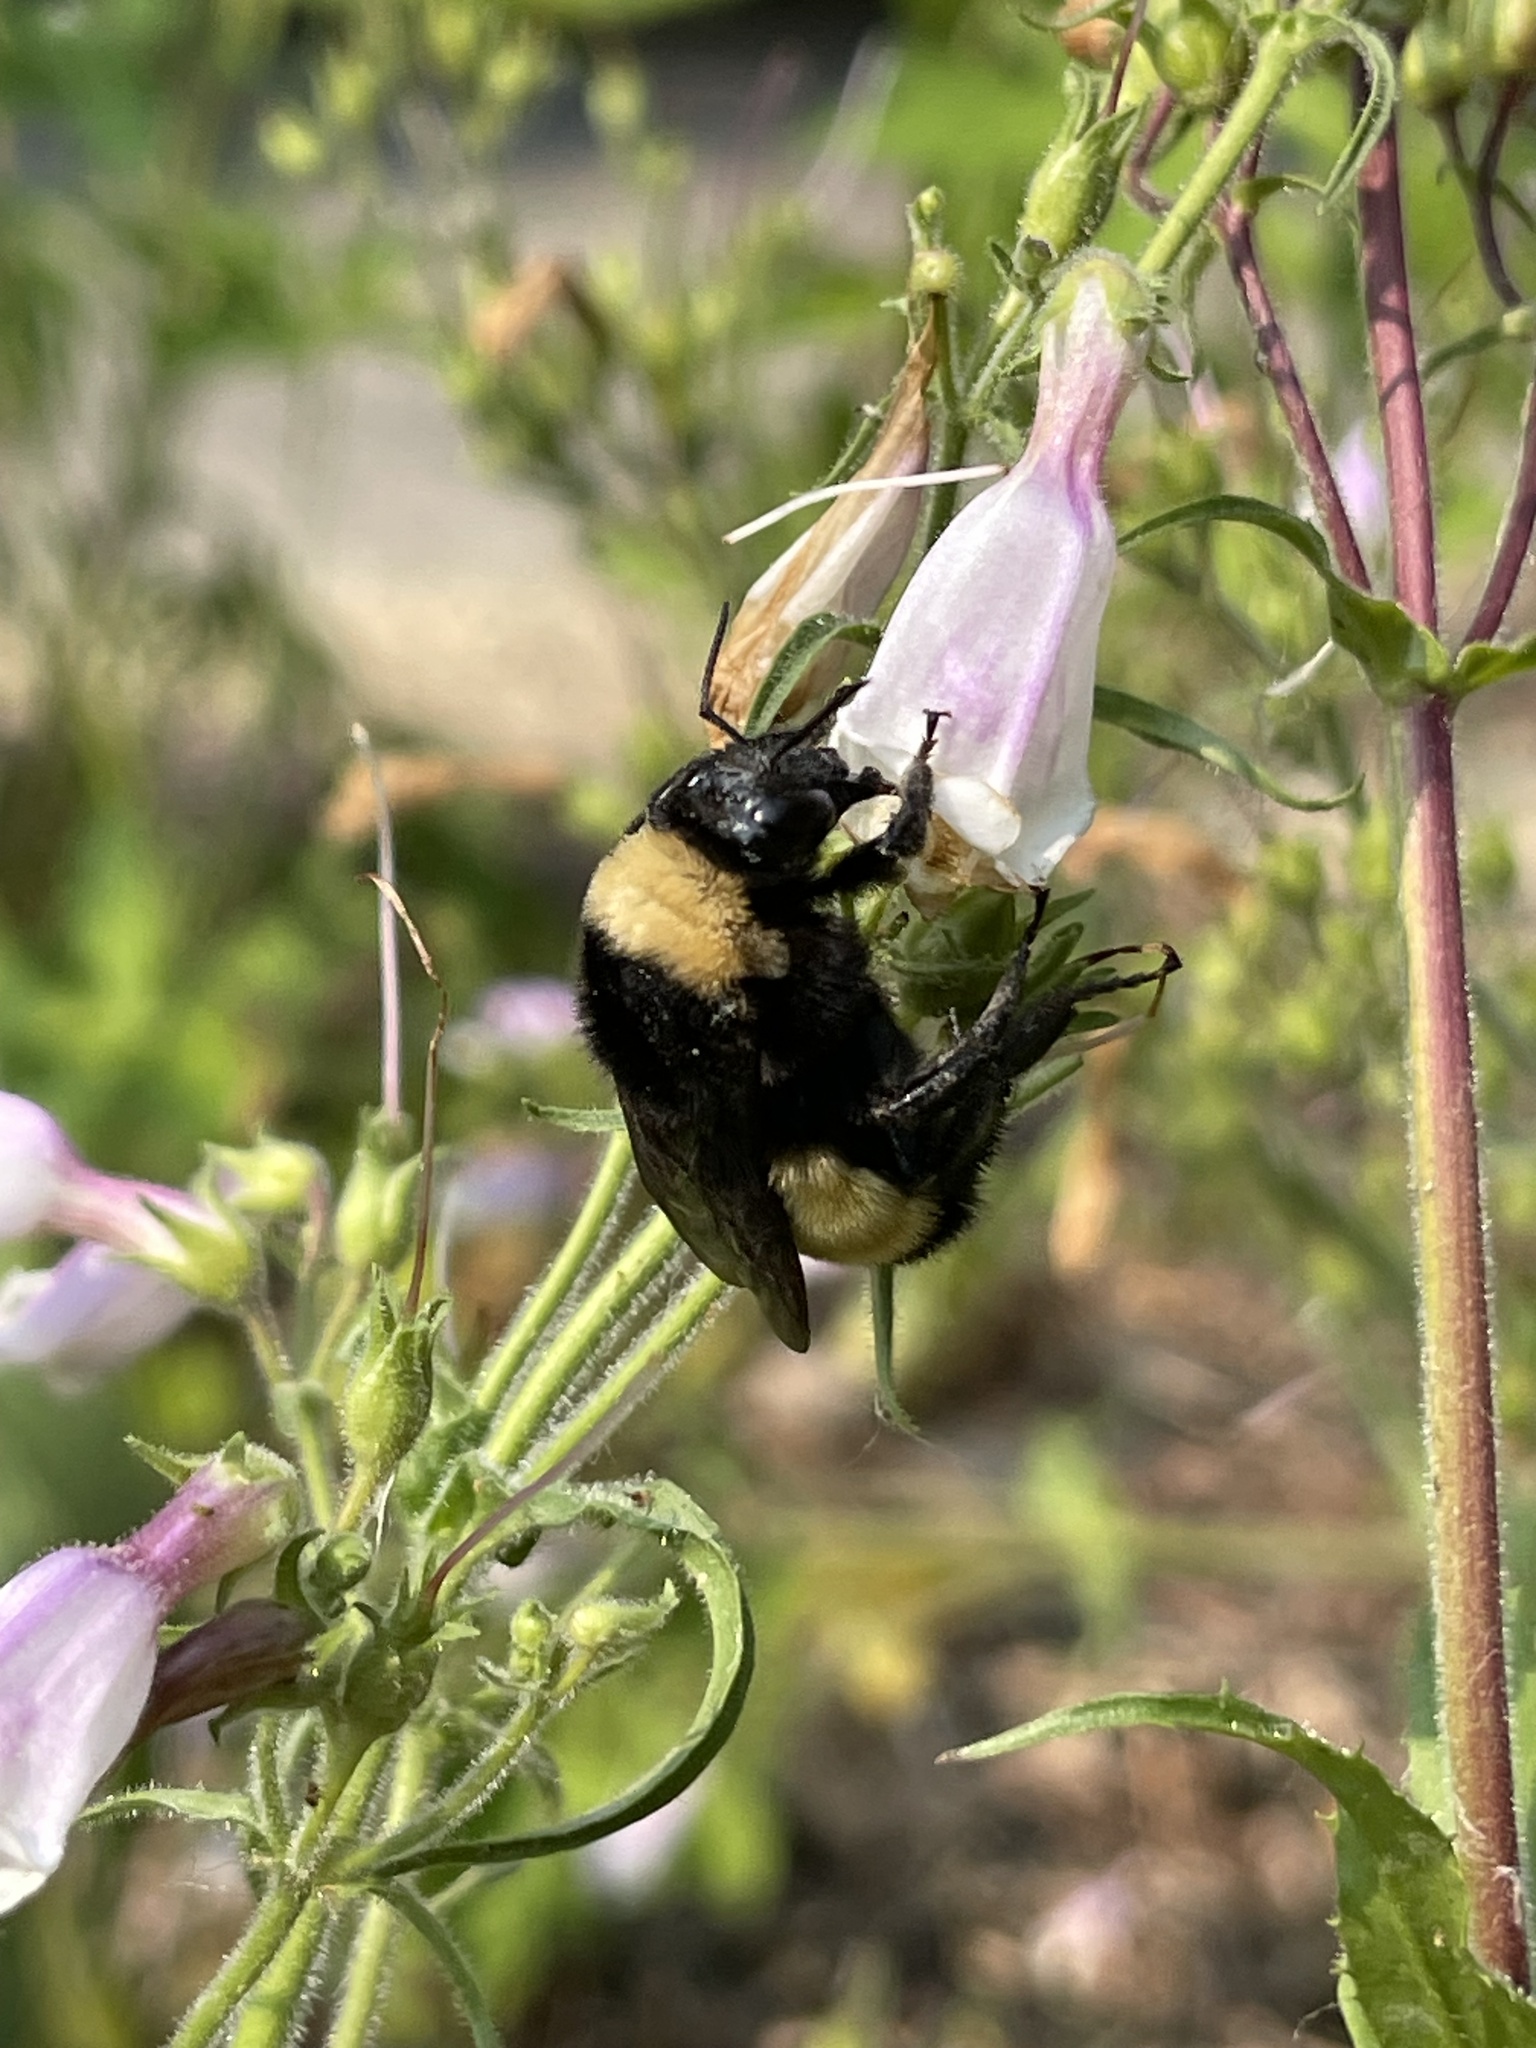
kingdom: Animalia
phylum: Arthropoda
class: Insecta
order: Hymenoptera
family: Apidae
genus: Bombus
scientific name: Bombus pensylvanicus
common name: Bumble bee
